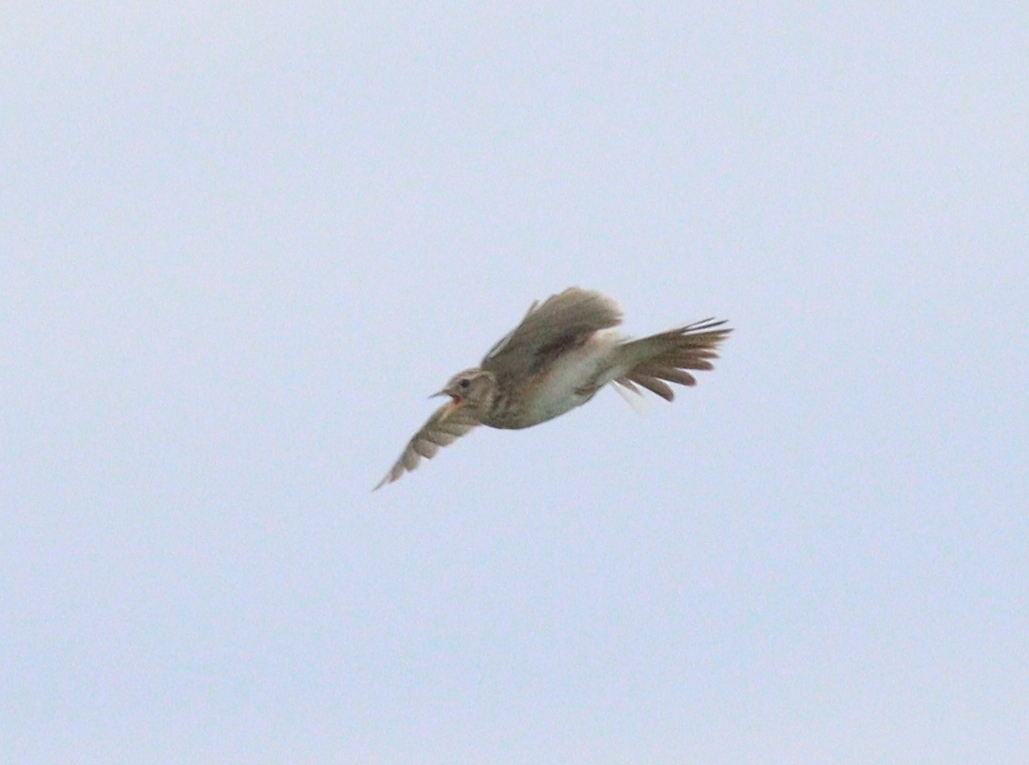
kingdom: Animalia
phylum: Chordata
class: Aves
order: Passeriformes
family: Alaudidae
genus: Alauda
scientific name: Alauda arvensis
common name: Eurasian skylark
